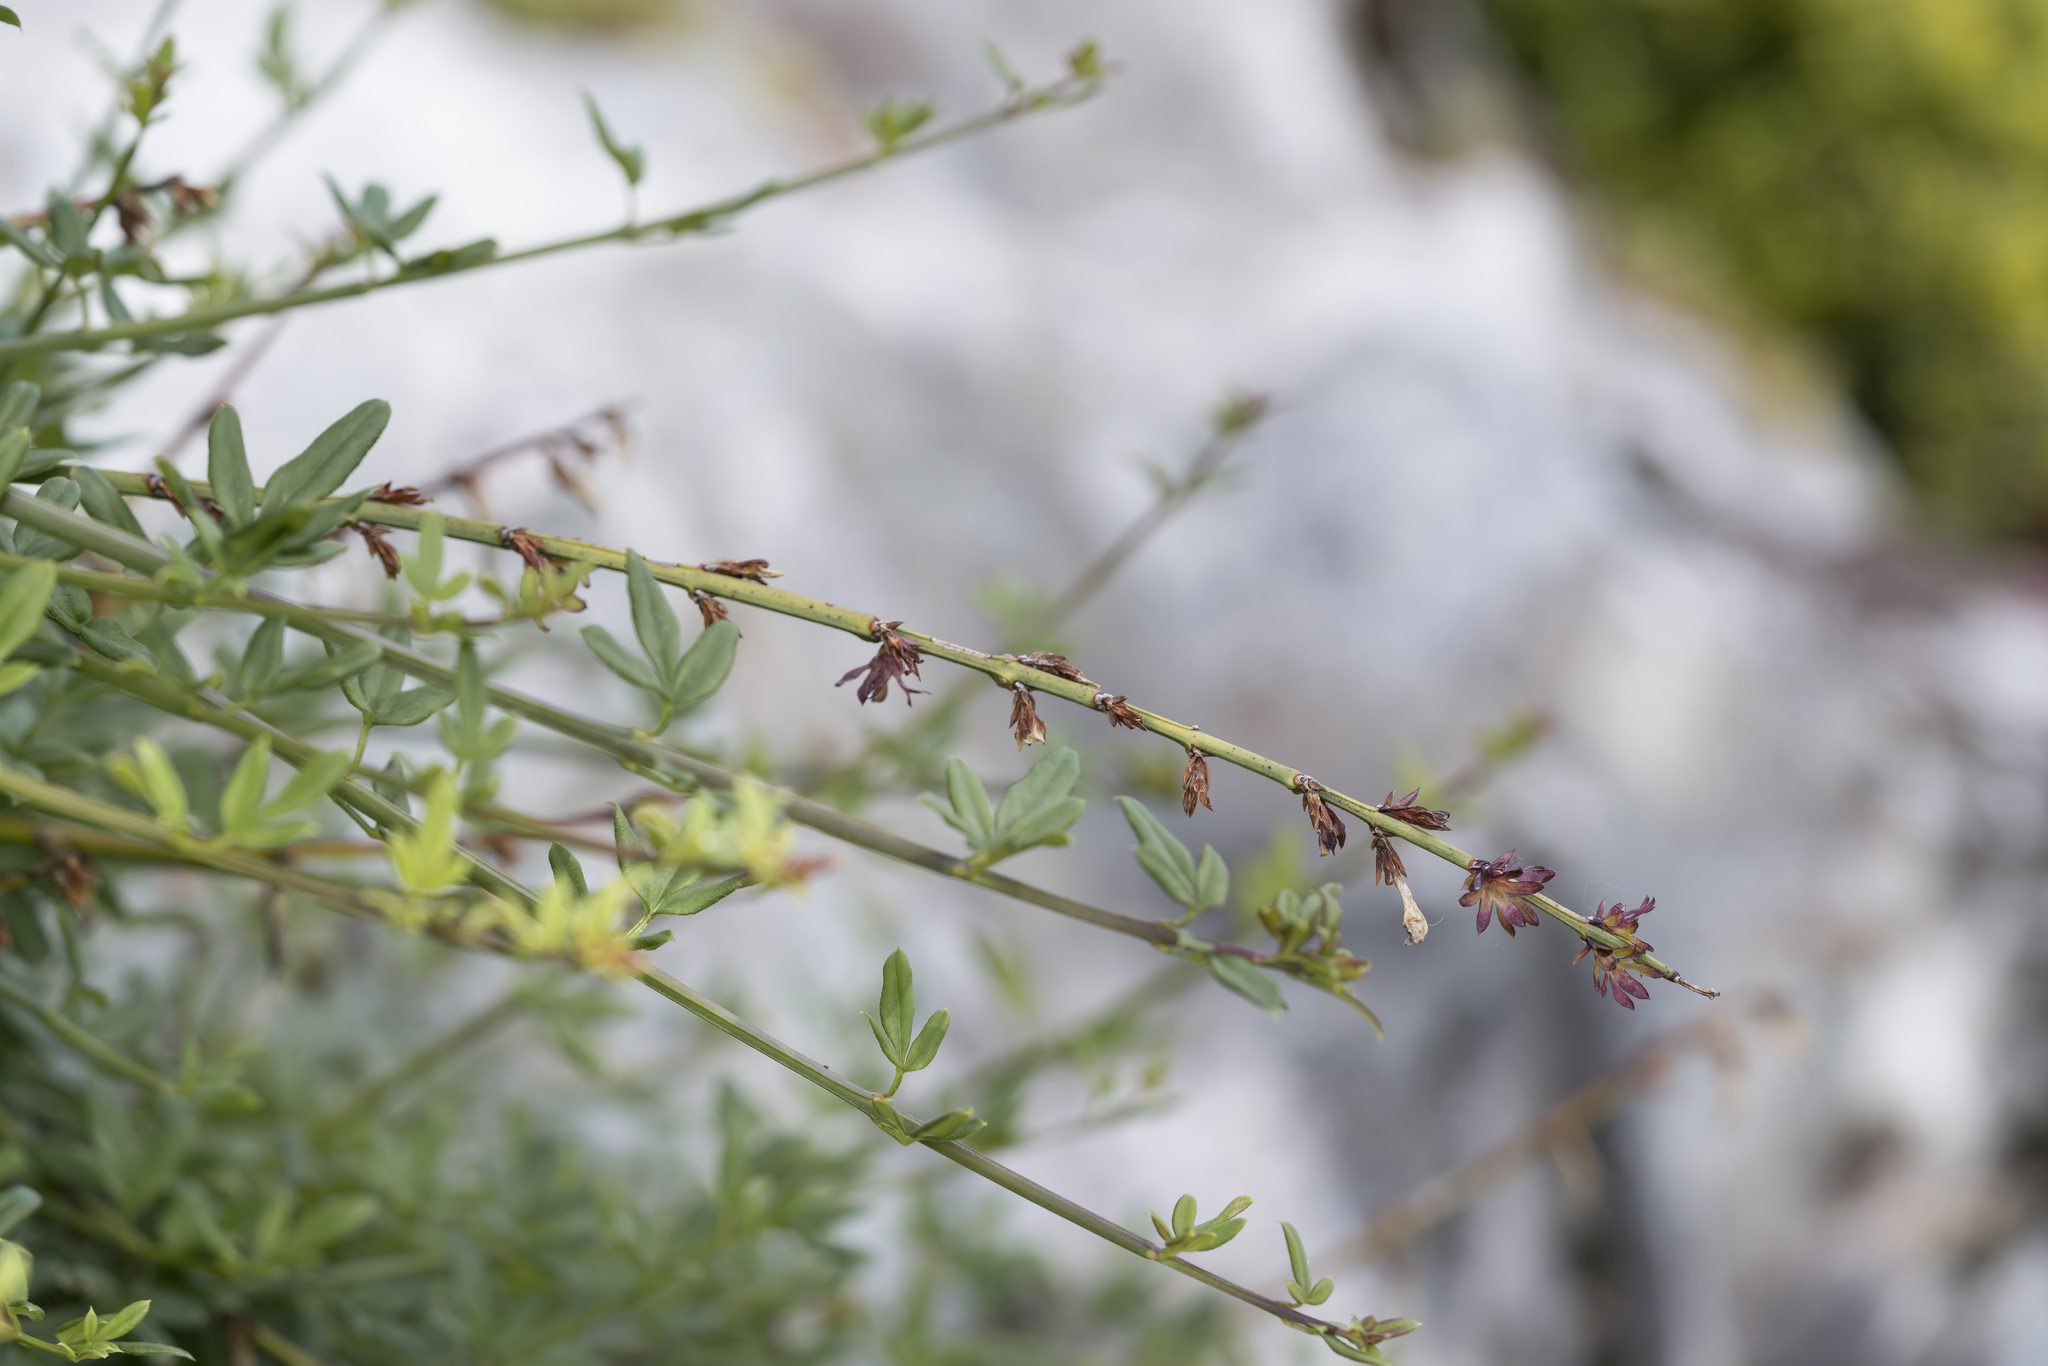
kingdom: Plantae
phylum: Tracheophyta
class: Magnoliopsida
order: Lamiales
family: Oleaceae
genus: Jasminum
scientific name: Jasminum nudiflorum
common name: Winter jasmine
